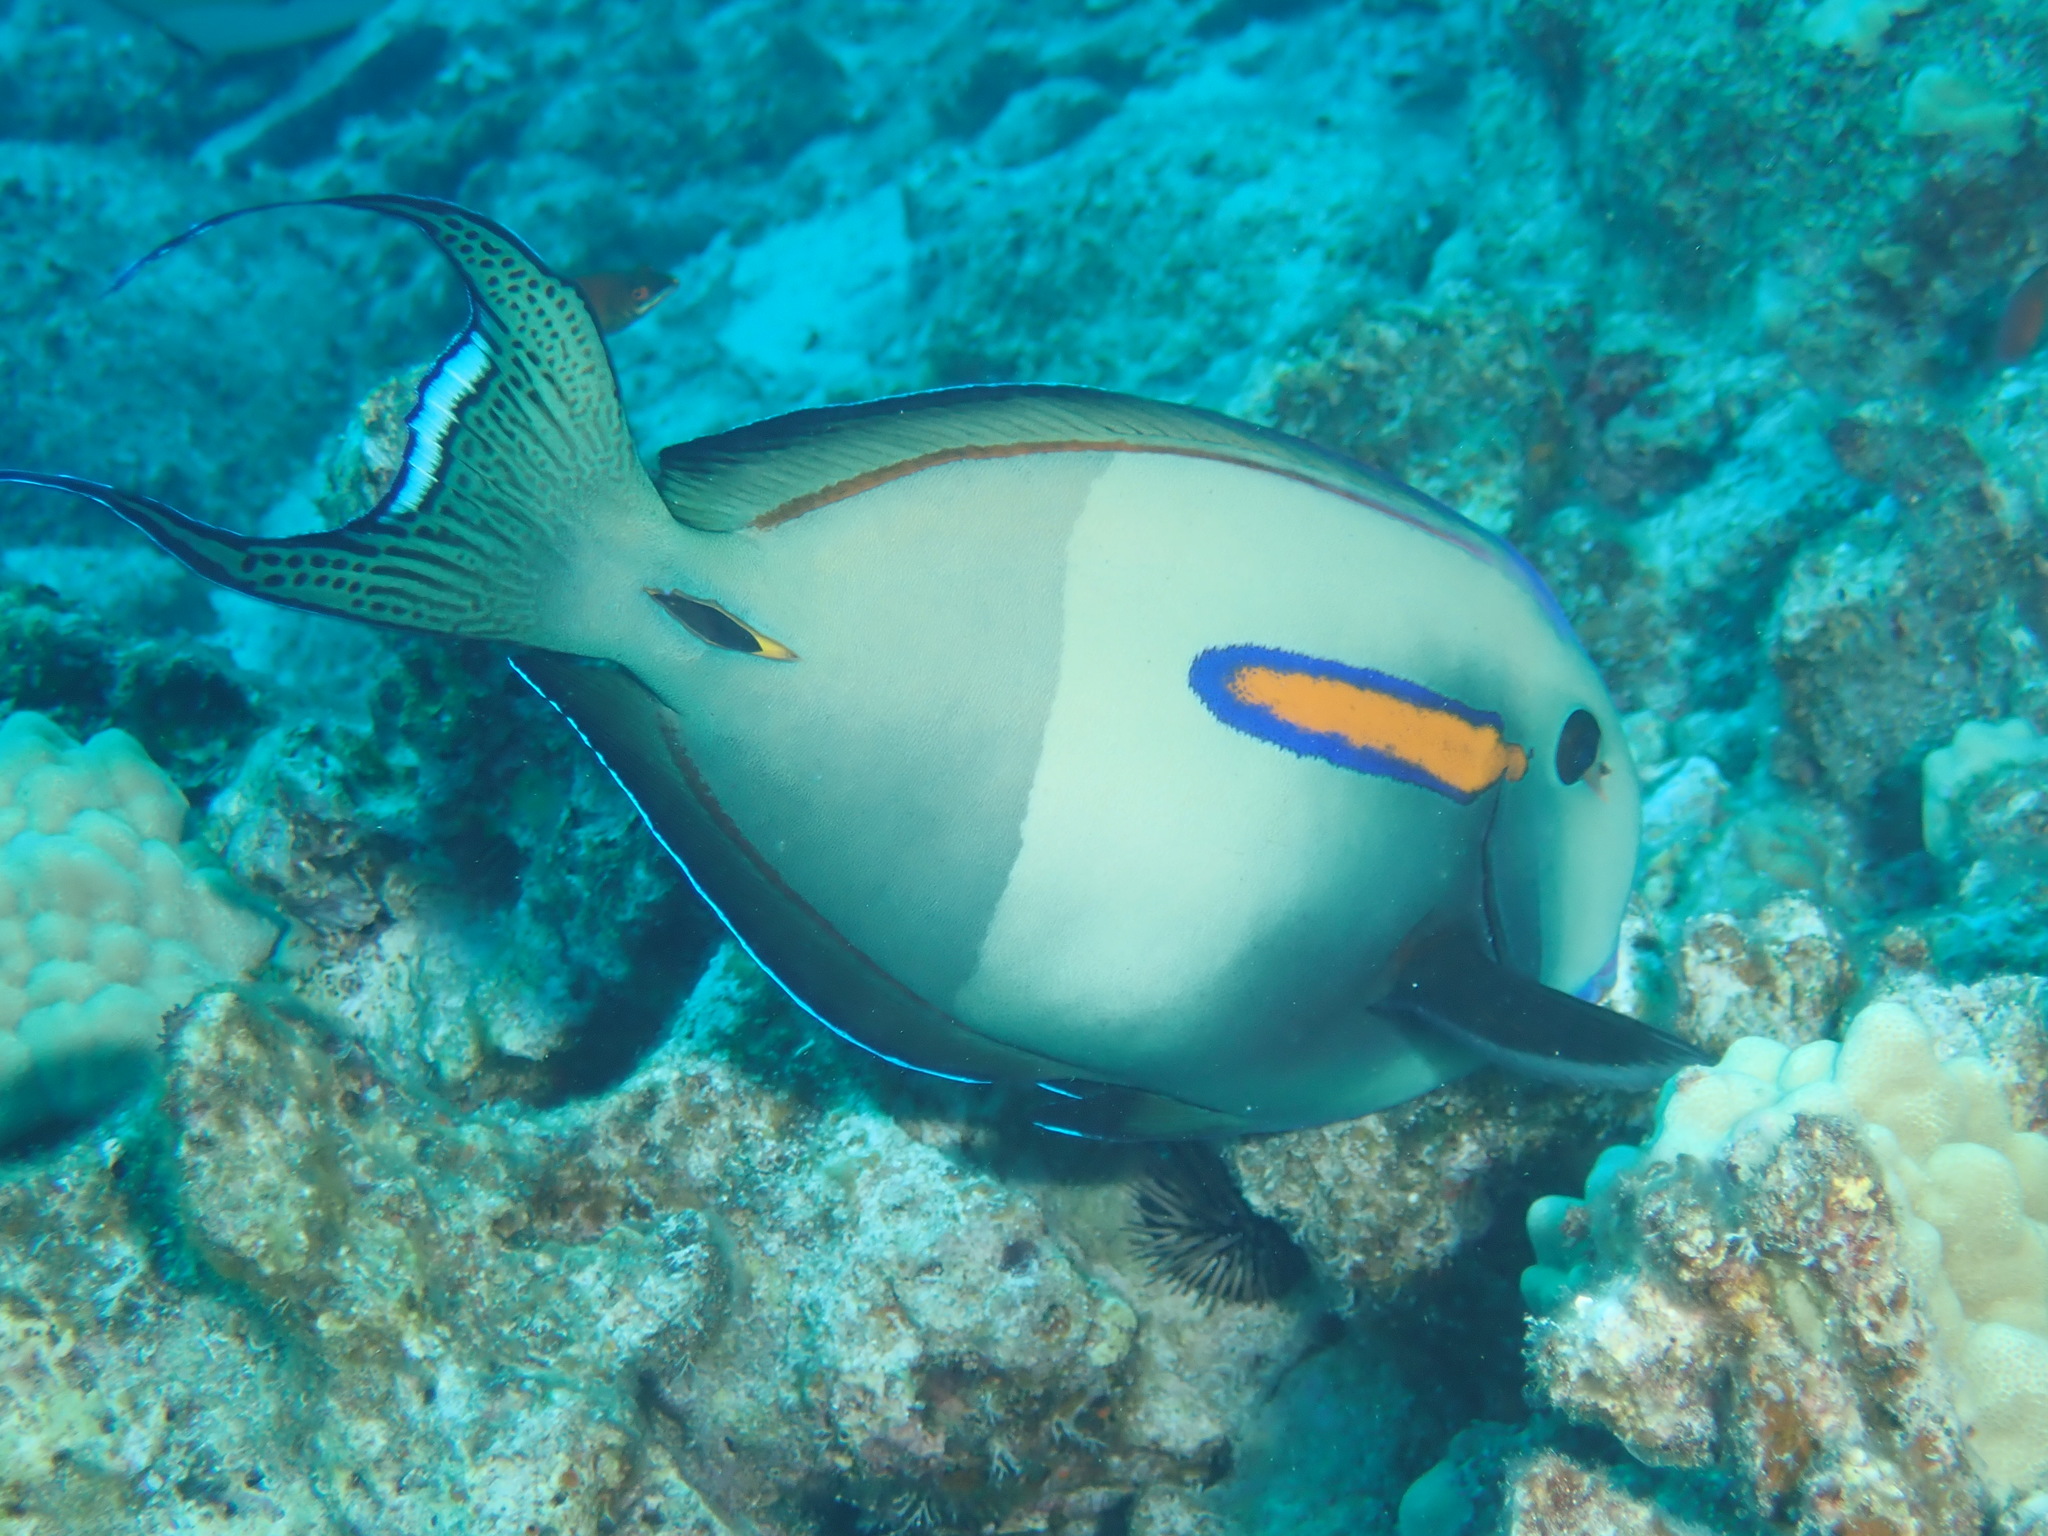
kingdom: Animalia
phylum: Chordata
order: Perciformes
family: Acanthuridae
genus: Acanthurus
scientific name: Acanthurus olivaceus
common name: Gendarme fish
